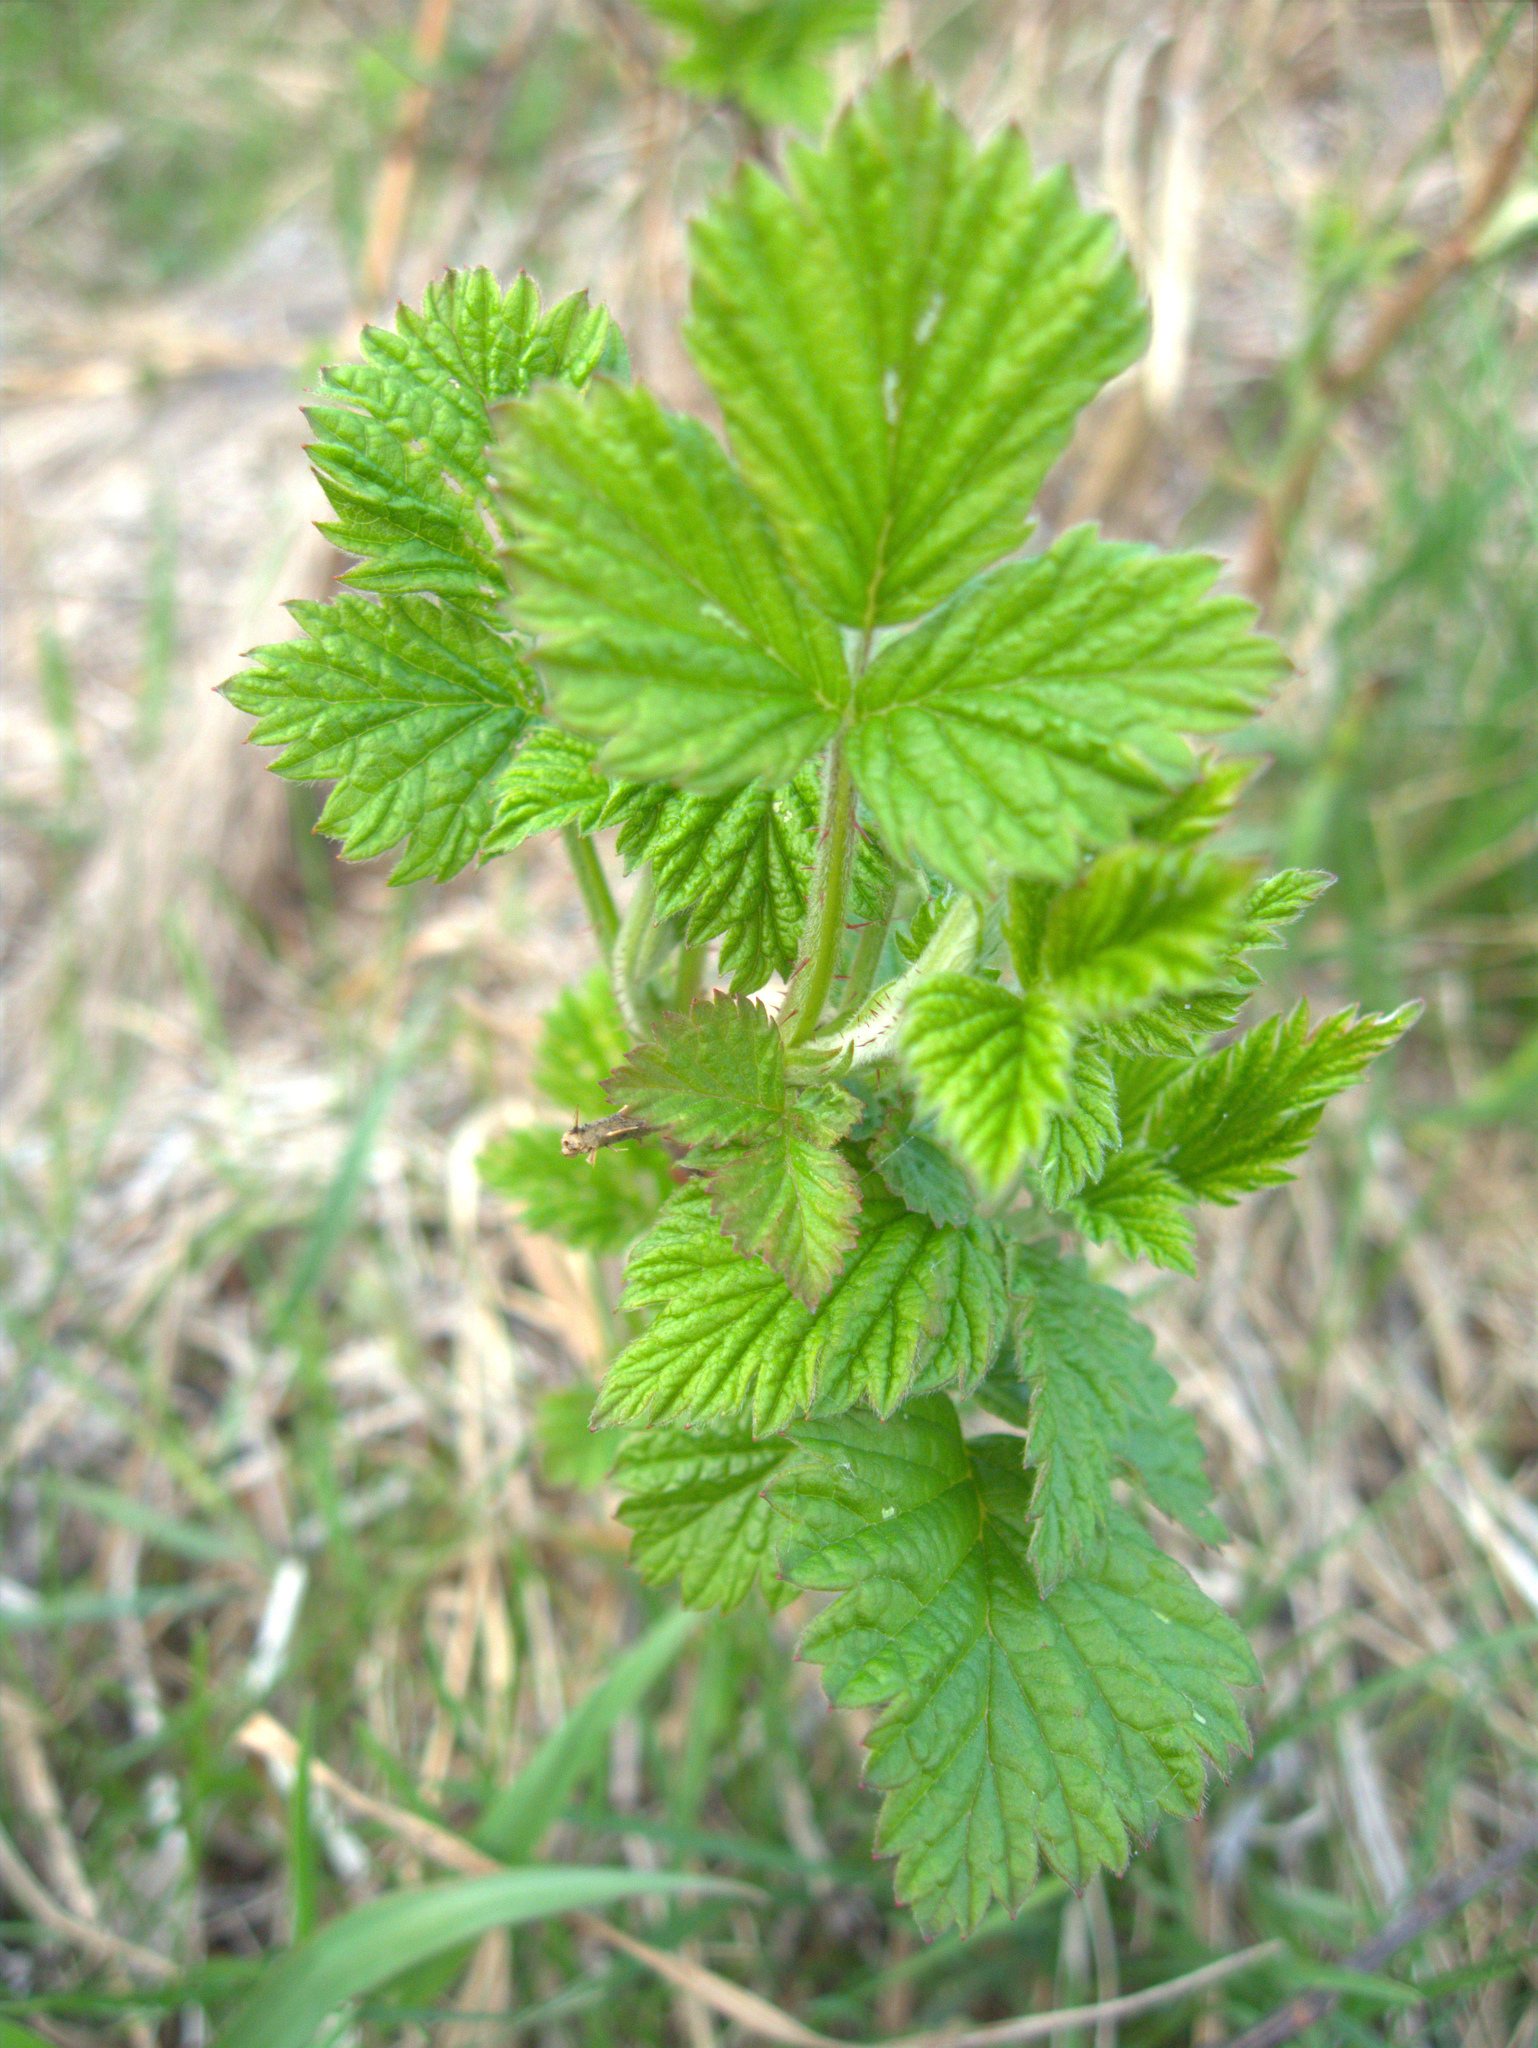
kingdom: Plantae
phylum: Tracheophyta
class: Magnoliopsida
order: Rosales
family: Rosaceae
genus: Rubus
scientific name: Rubus idaeus
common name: Raspberry
